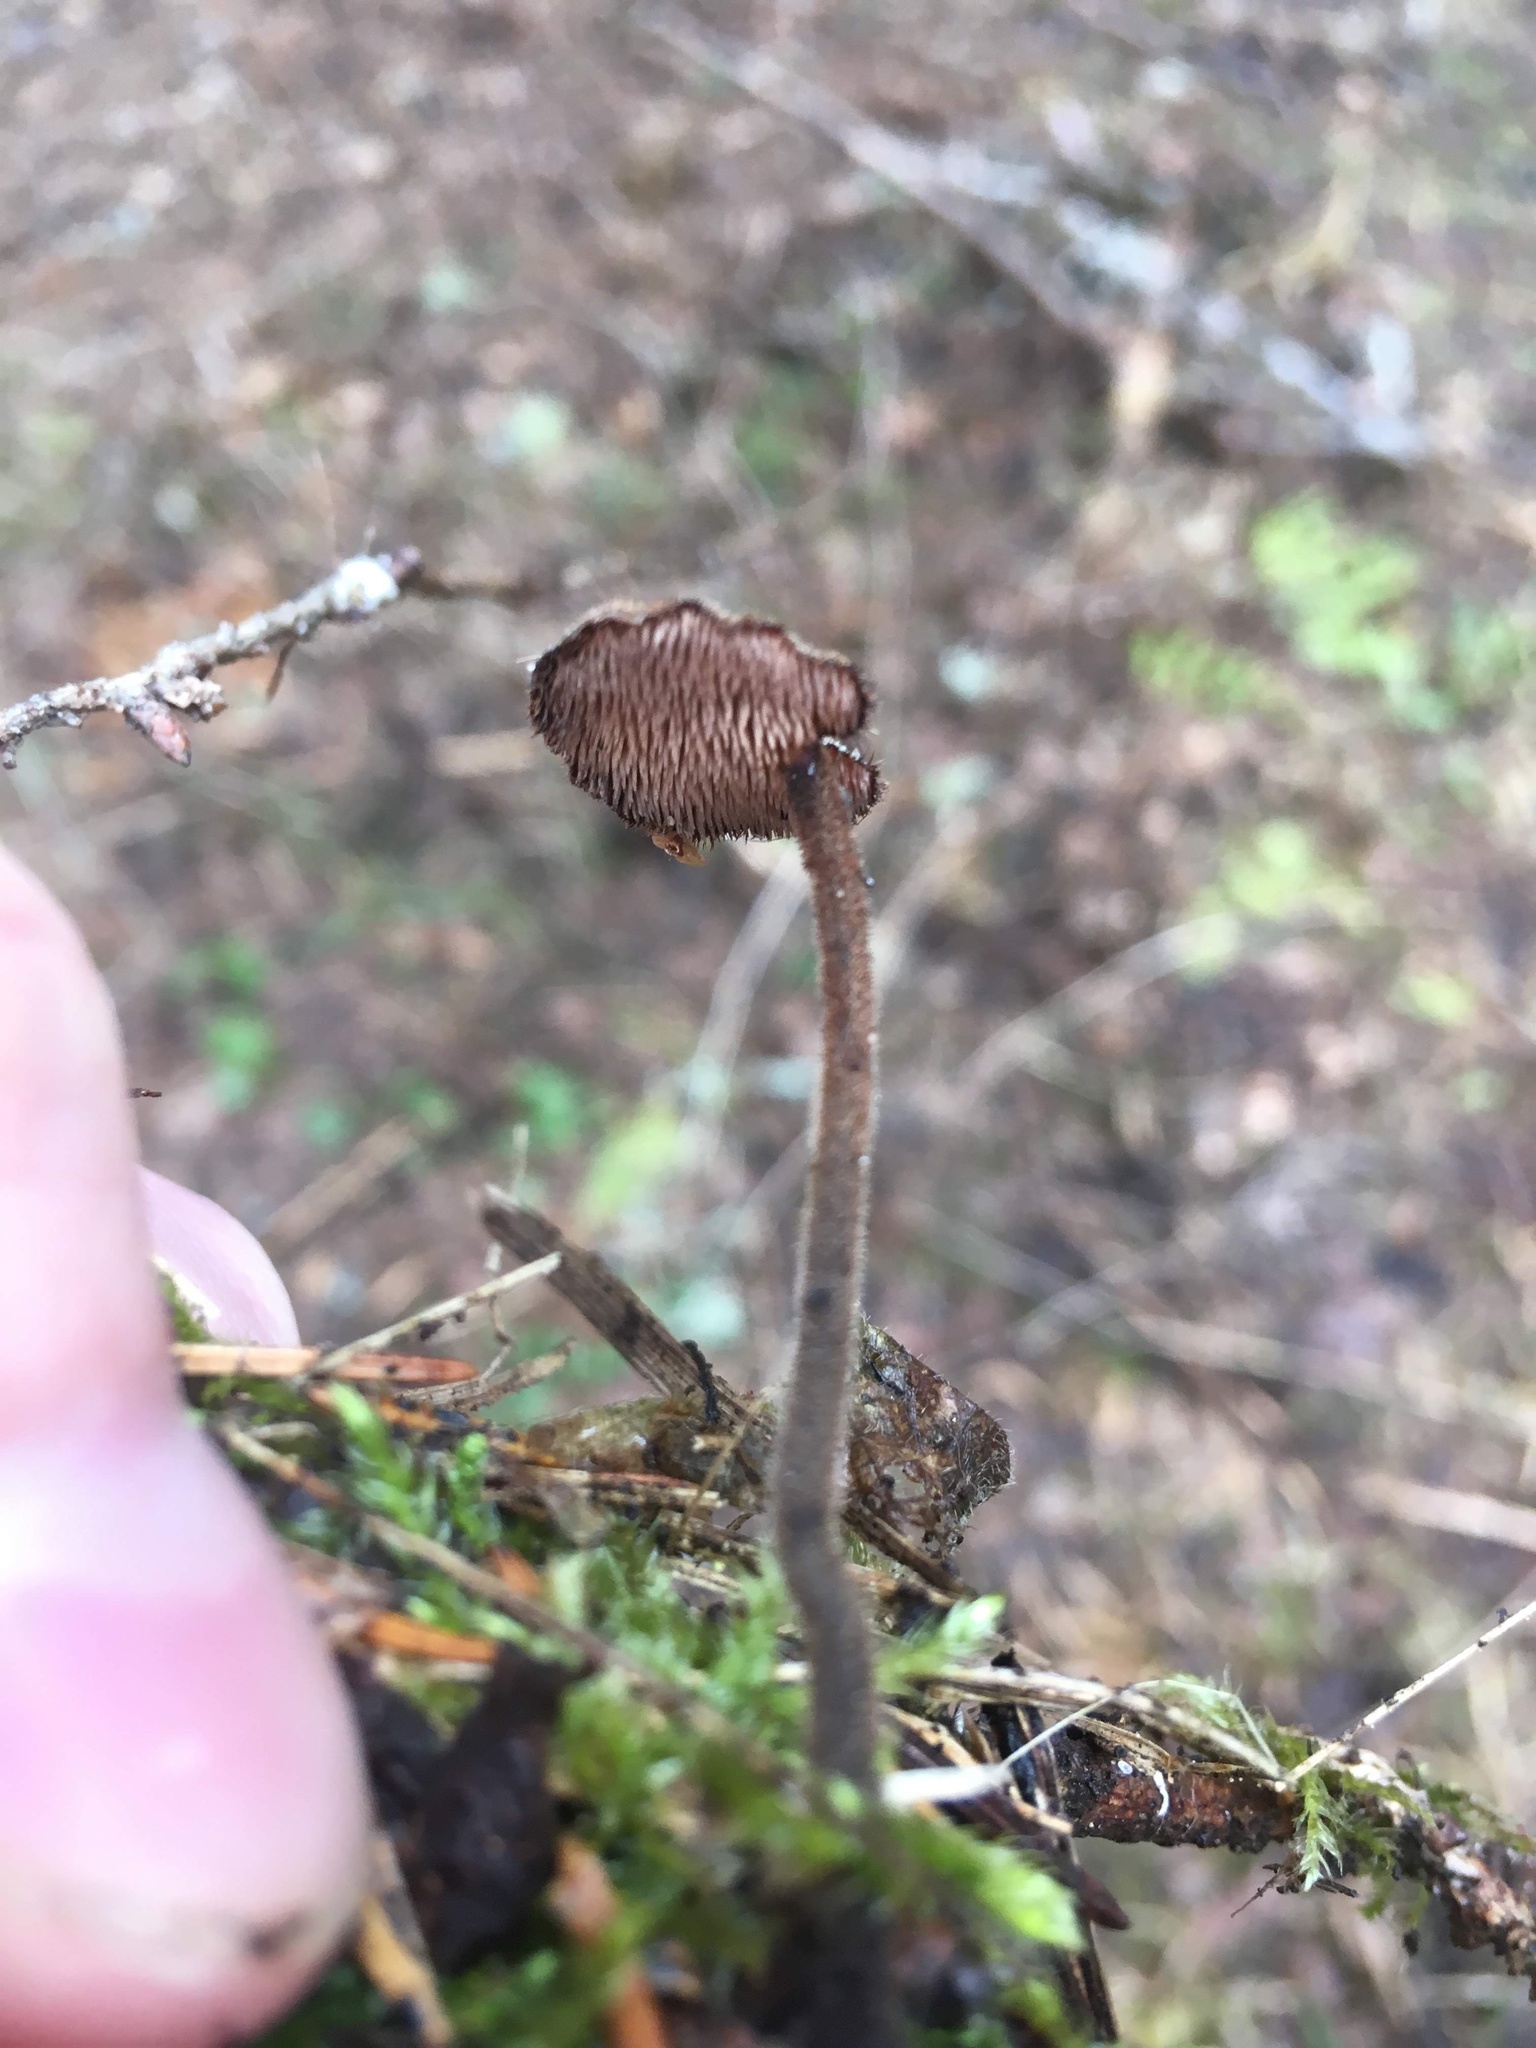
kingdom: Fungi
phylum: Basidiomycota
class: Agaricomycetes
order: Russulales
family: Auriscalpiaceae
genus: Auriscalpium
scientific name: Auriscalpium vulgare
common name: Earpick fungus
